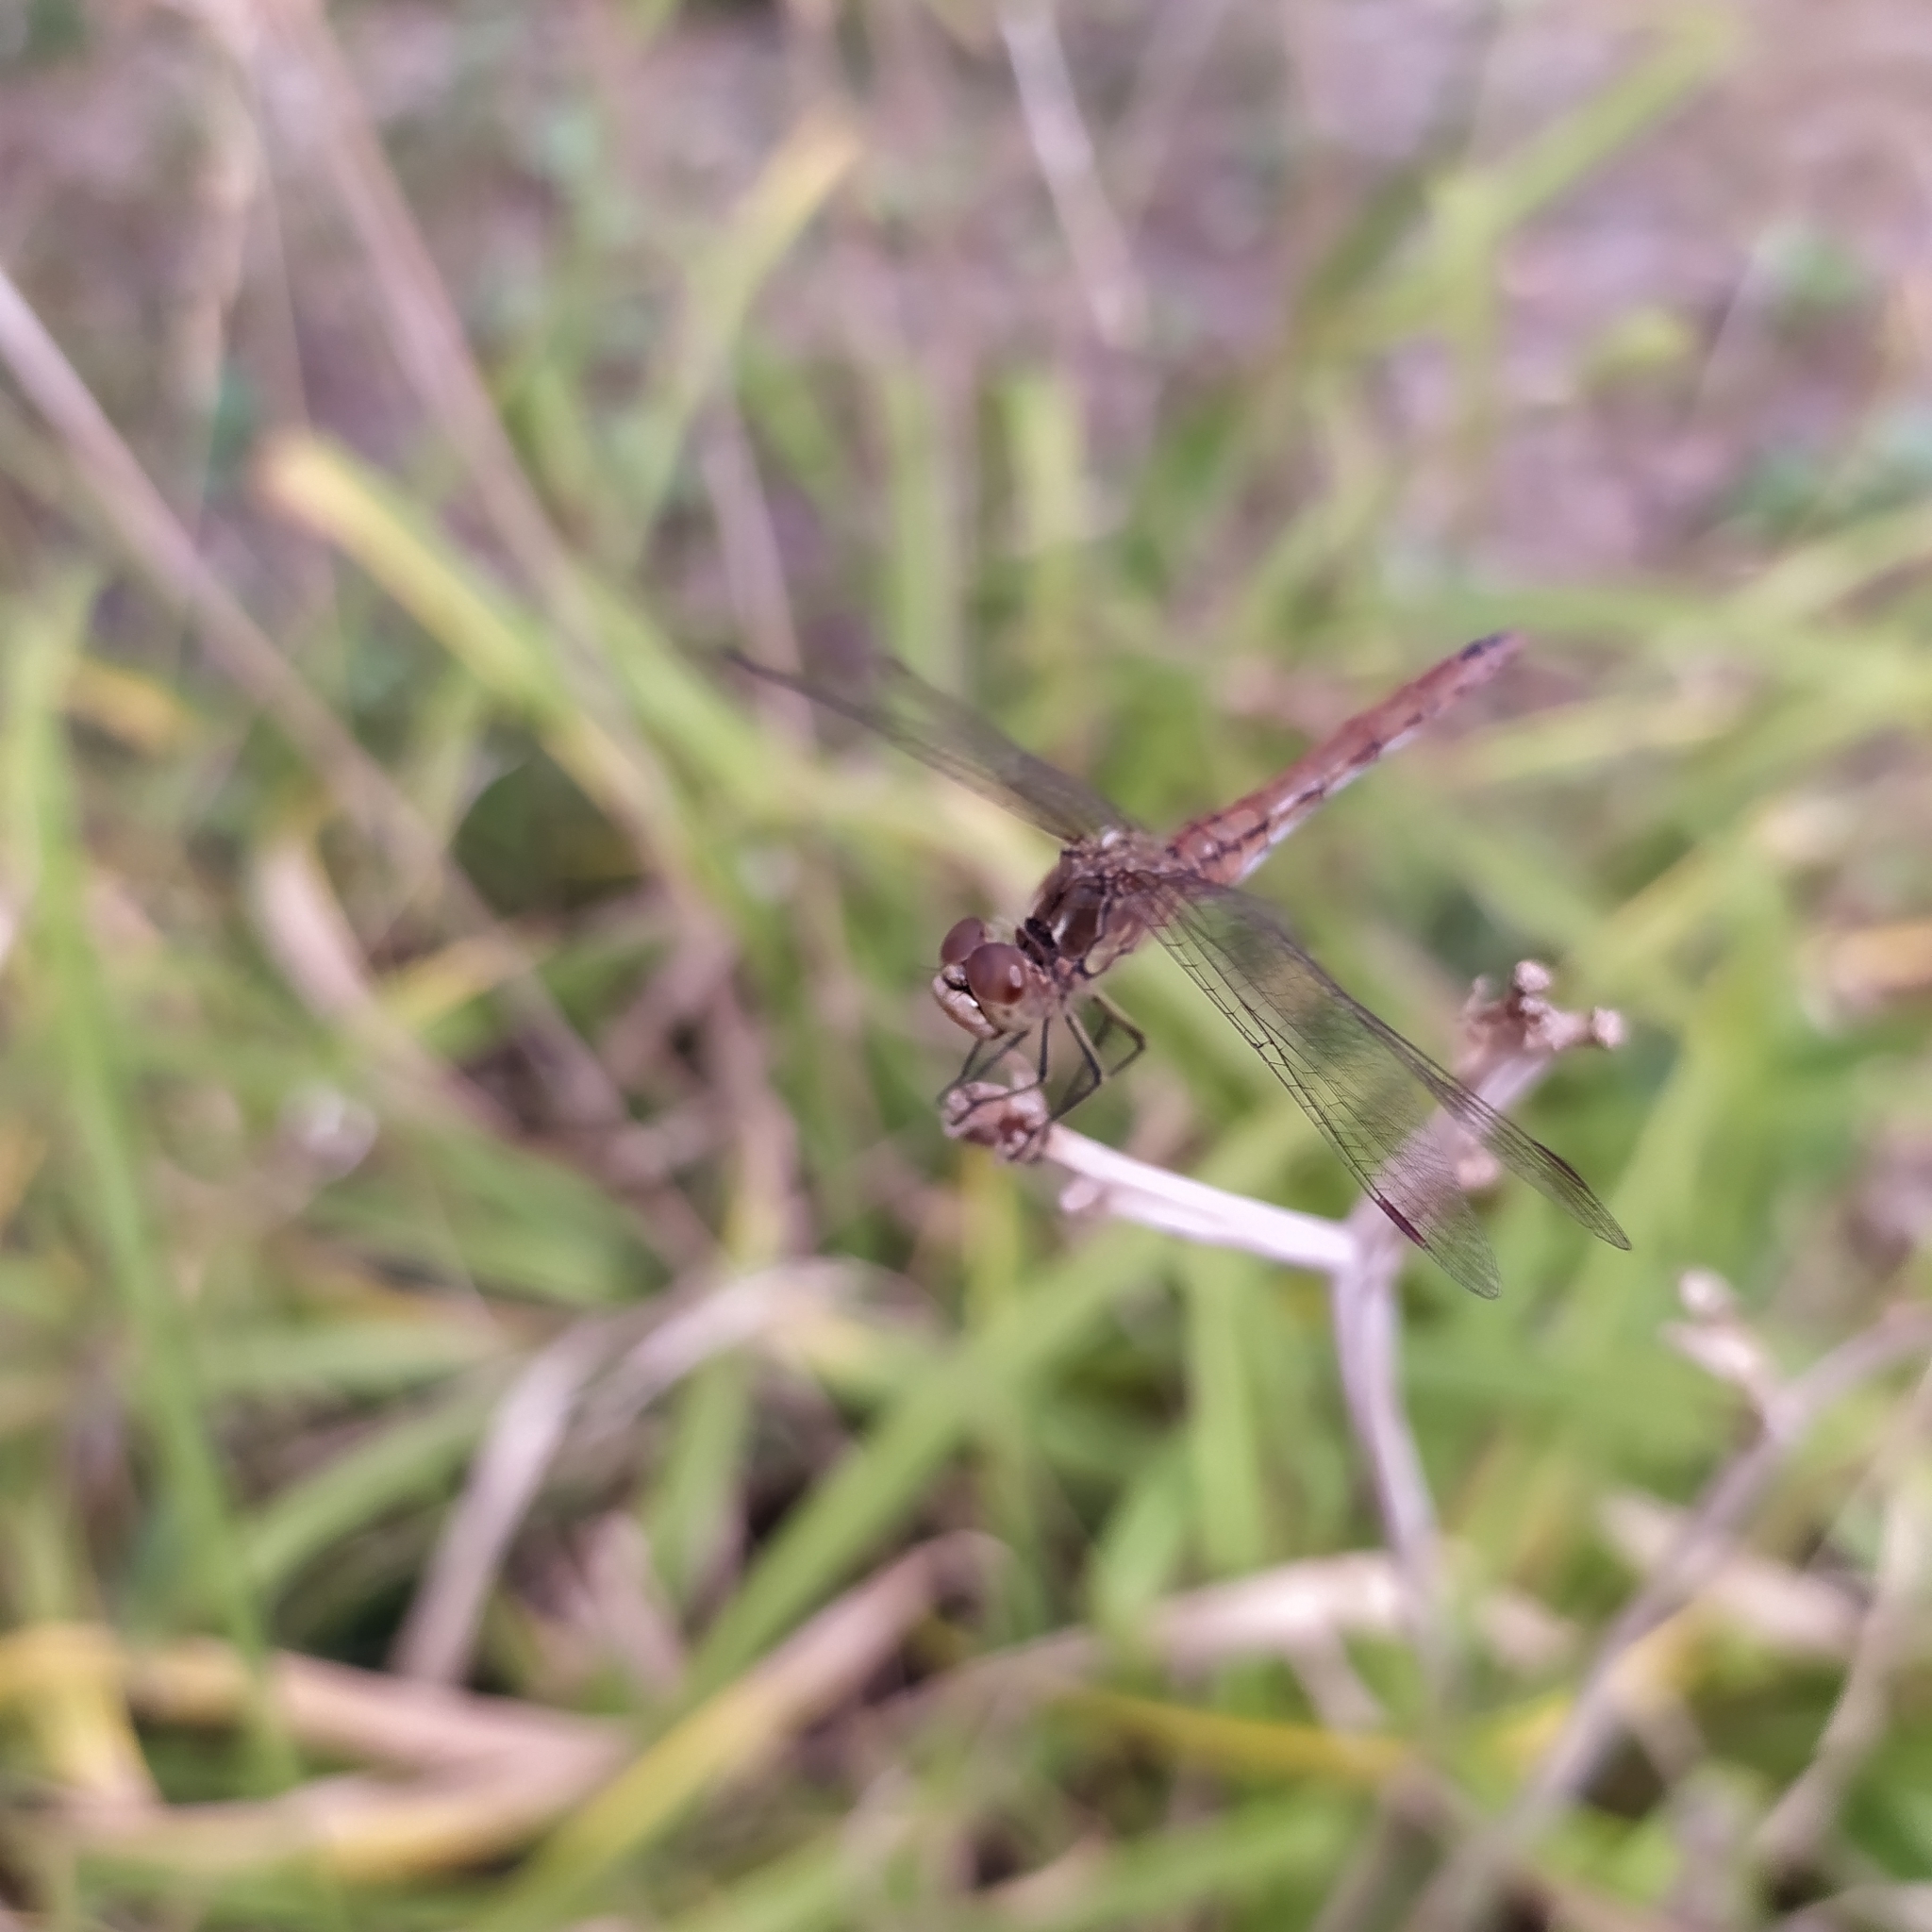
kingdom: Animalia
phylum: Arthropoda
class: Insecta
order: Odonata
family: Libellulidae
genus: Sympetrum
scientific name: Sympetrum vulgatum
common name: Vagrant darter
